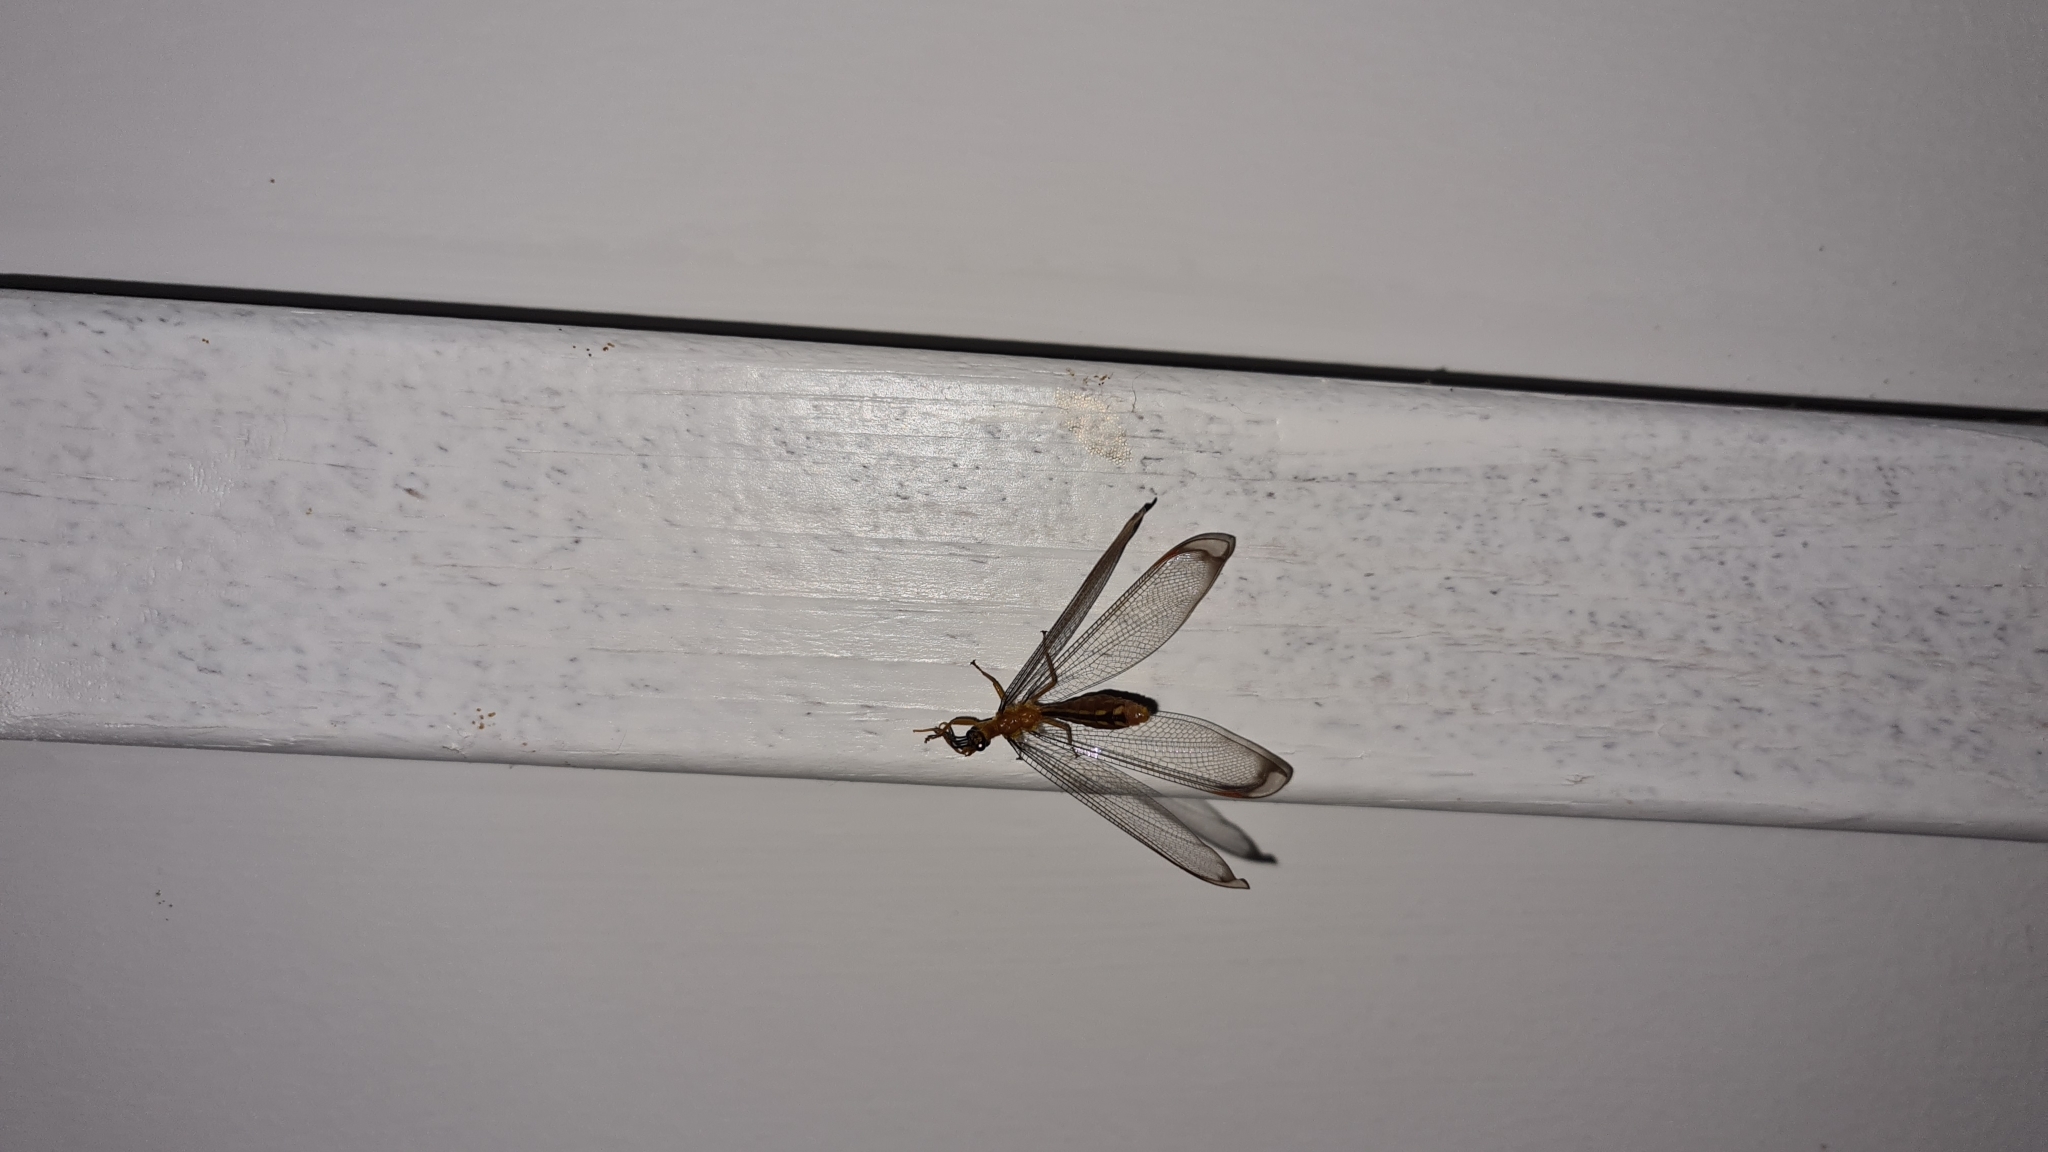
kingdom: Animalia
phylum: Arthropoda
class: Insecta
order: Neuroptera
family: Nymphidae
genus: Nymphes
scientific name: Nymphes myrmeleonoides
